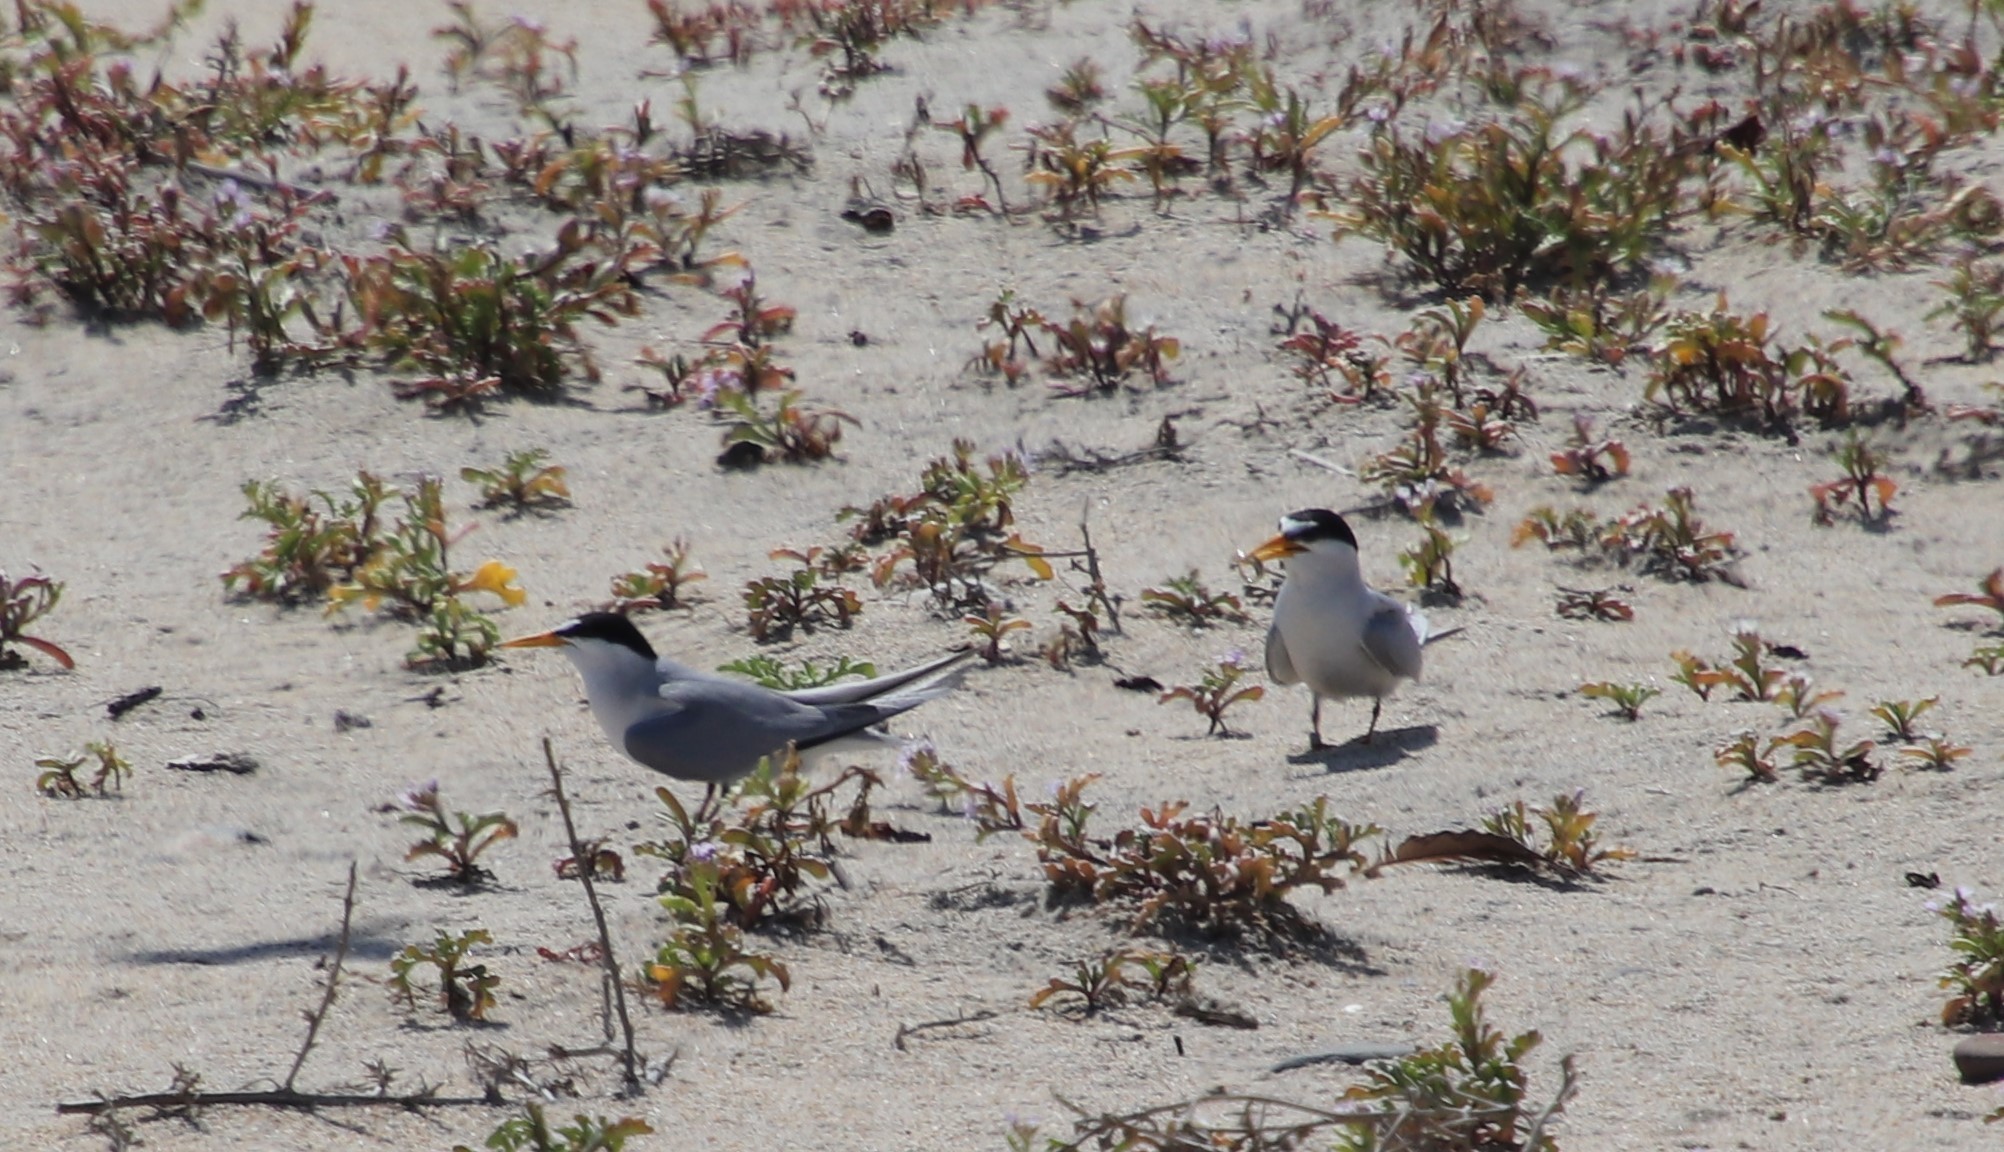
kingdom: Animalia
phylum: Chordata
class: Aves
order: Charadriiformes
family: Laridae
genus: Sternula
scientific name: Sternula antillarum
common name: Least tern
